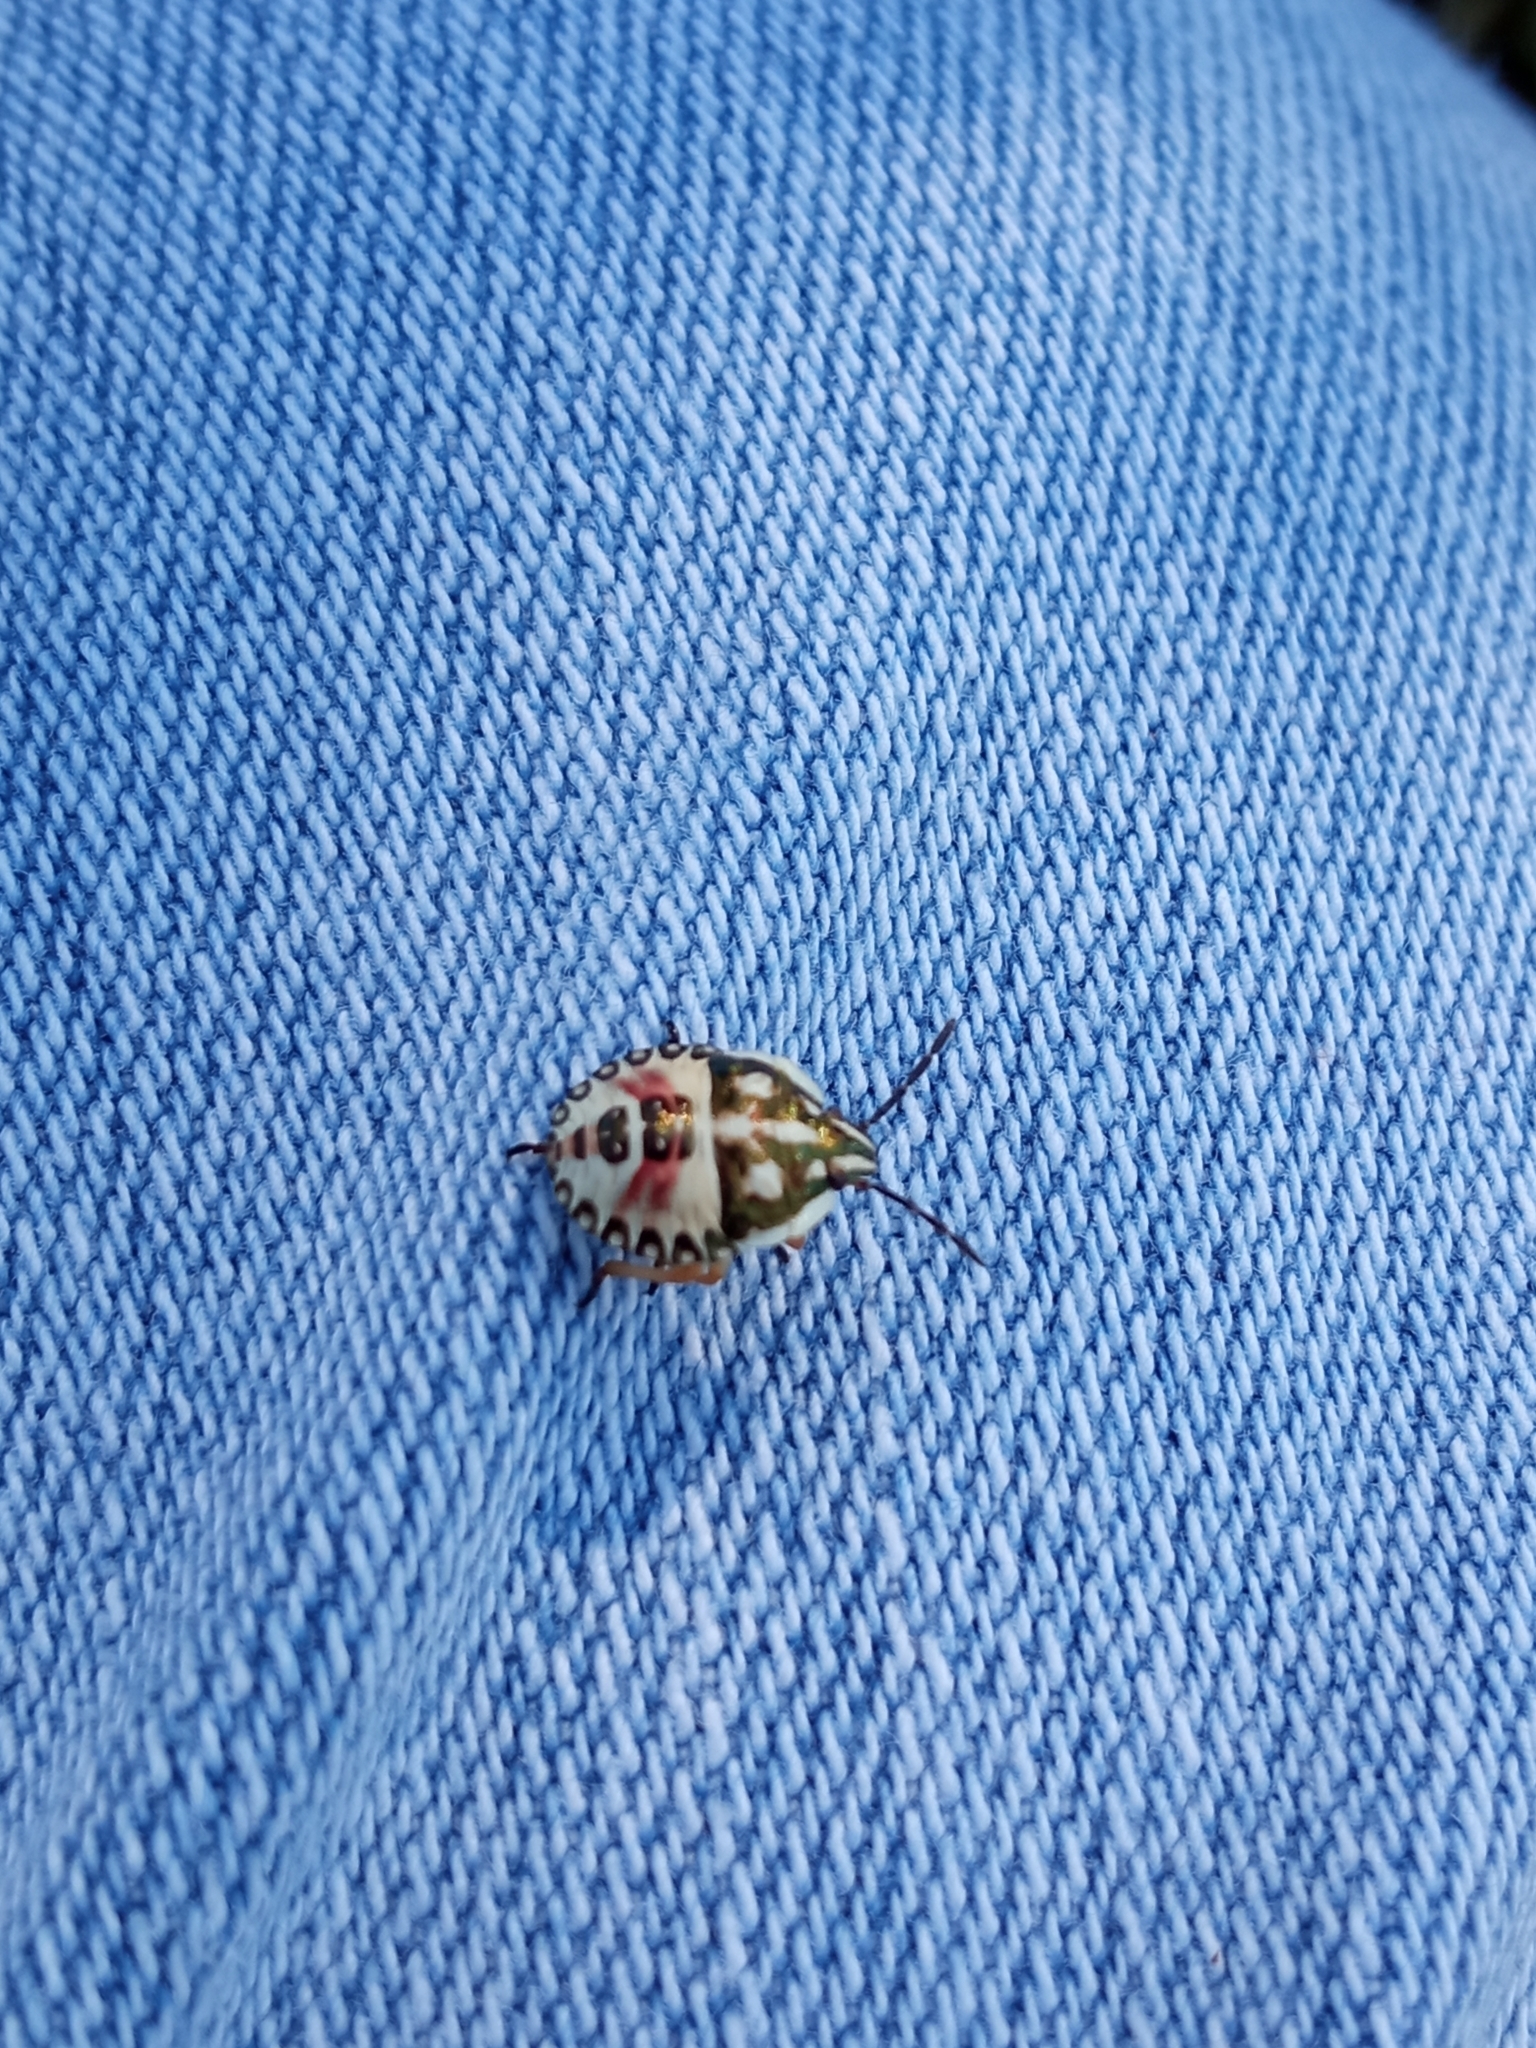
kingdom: Animalia
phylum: Arthropoda
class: Insecta
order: Hemiptera
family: Pentatomidae
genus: Carpocoris
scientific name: Carpocoris
